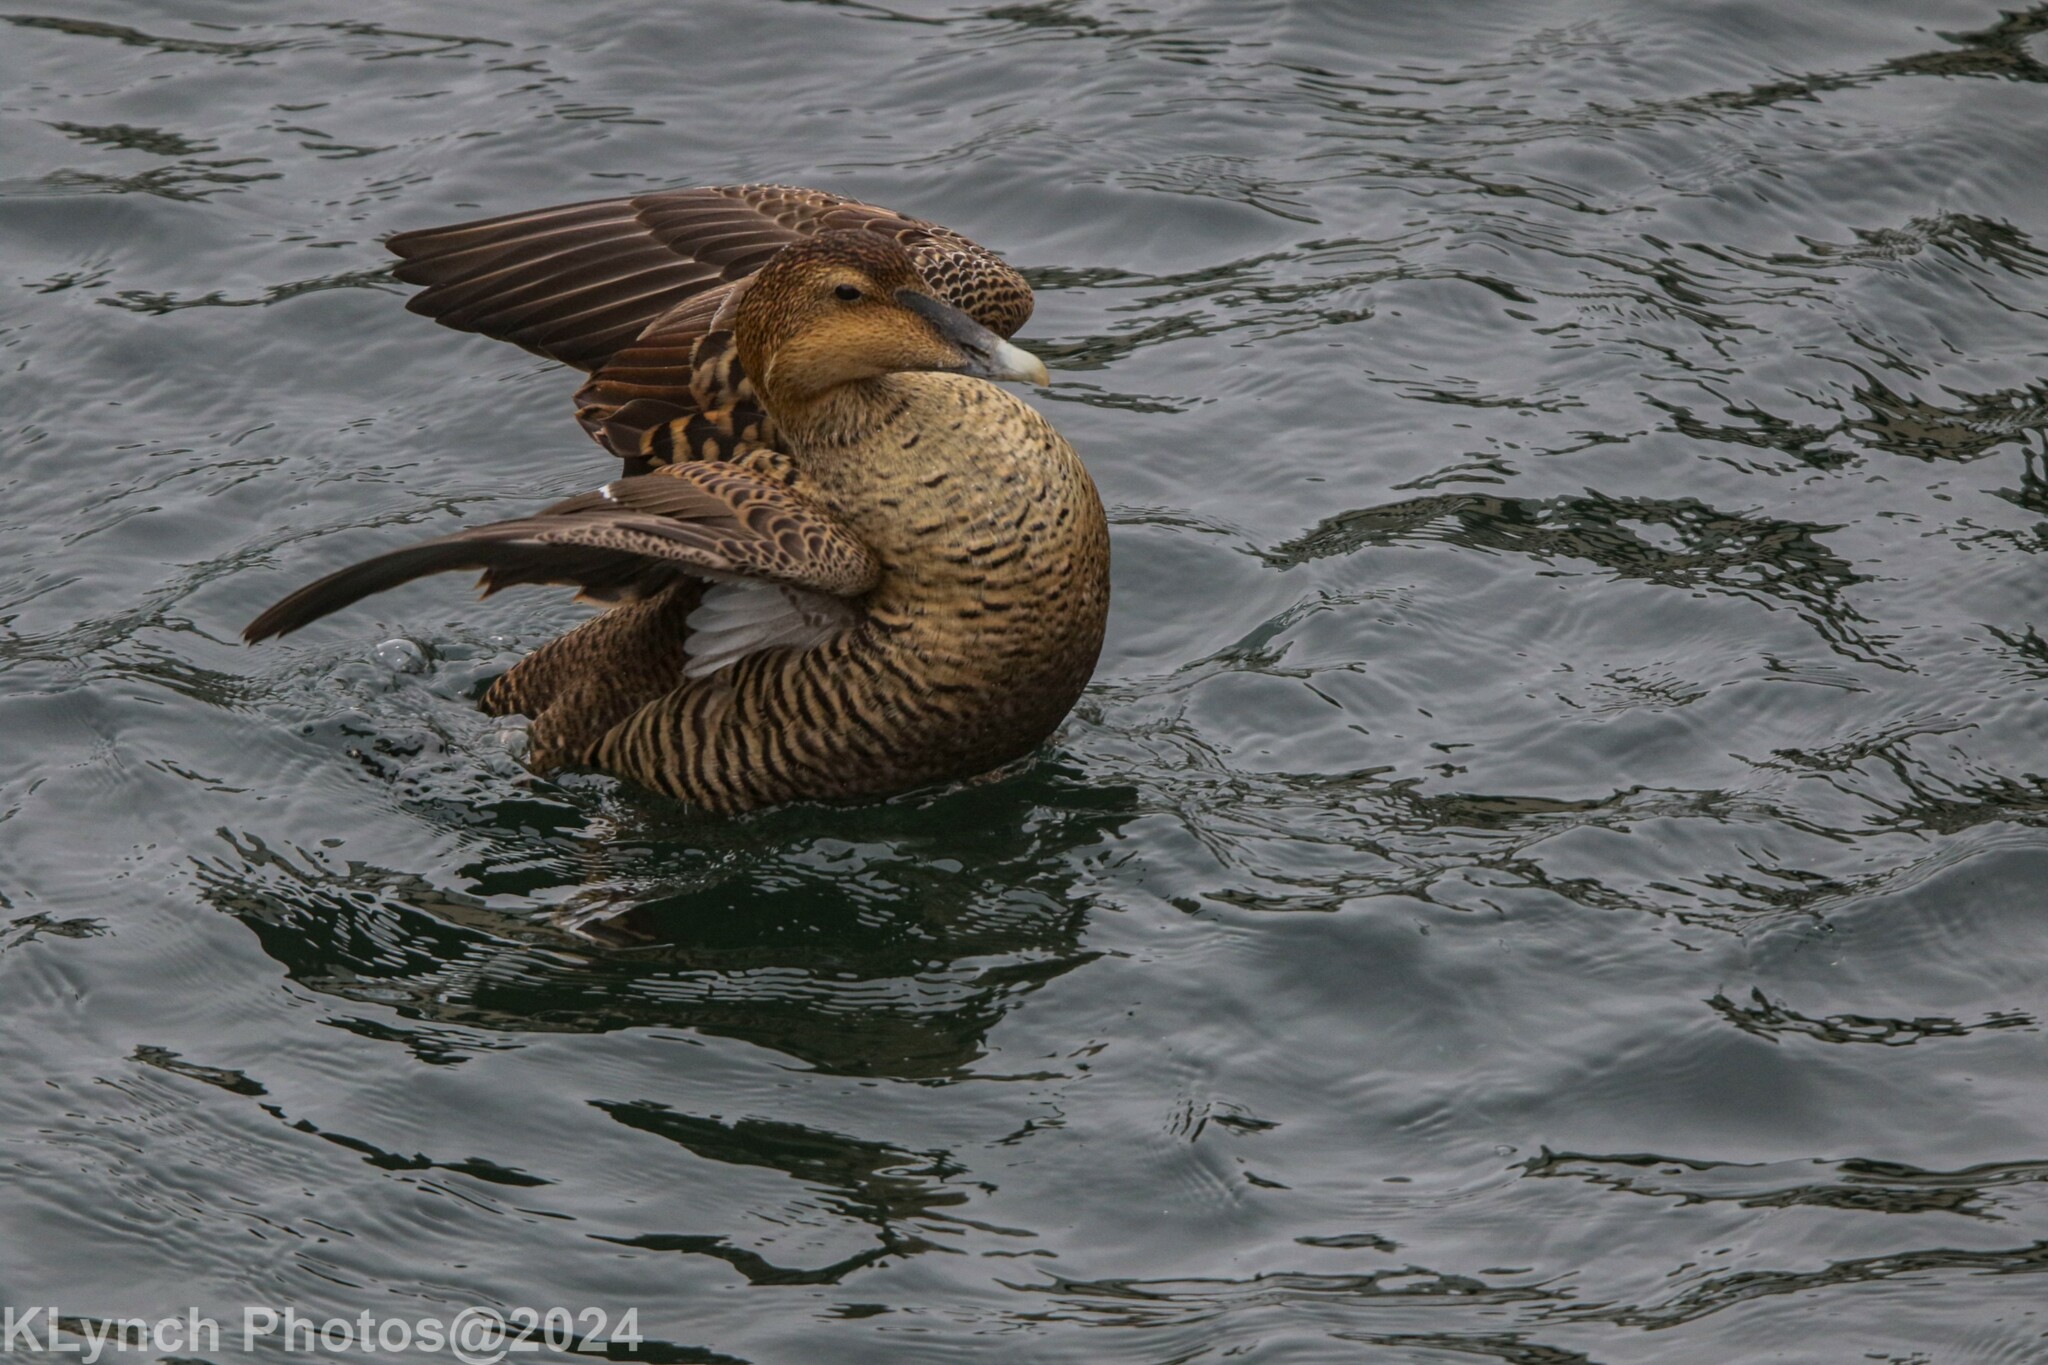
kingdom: Animalia
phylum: Chordata
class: Aves
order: Anseriformes
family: Anatidae
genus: Somateria
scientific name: Somateria mollissima
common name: Common eider
